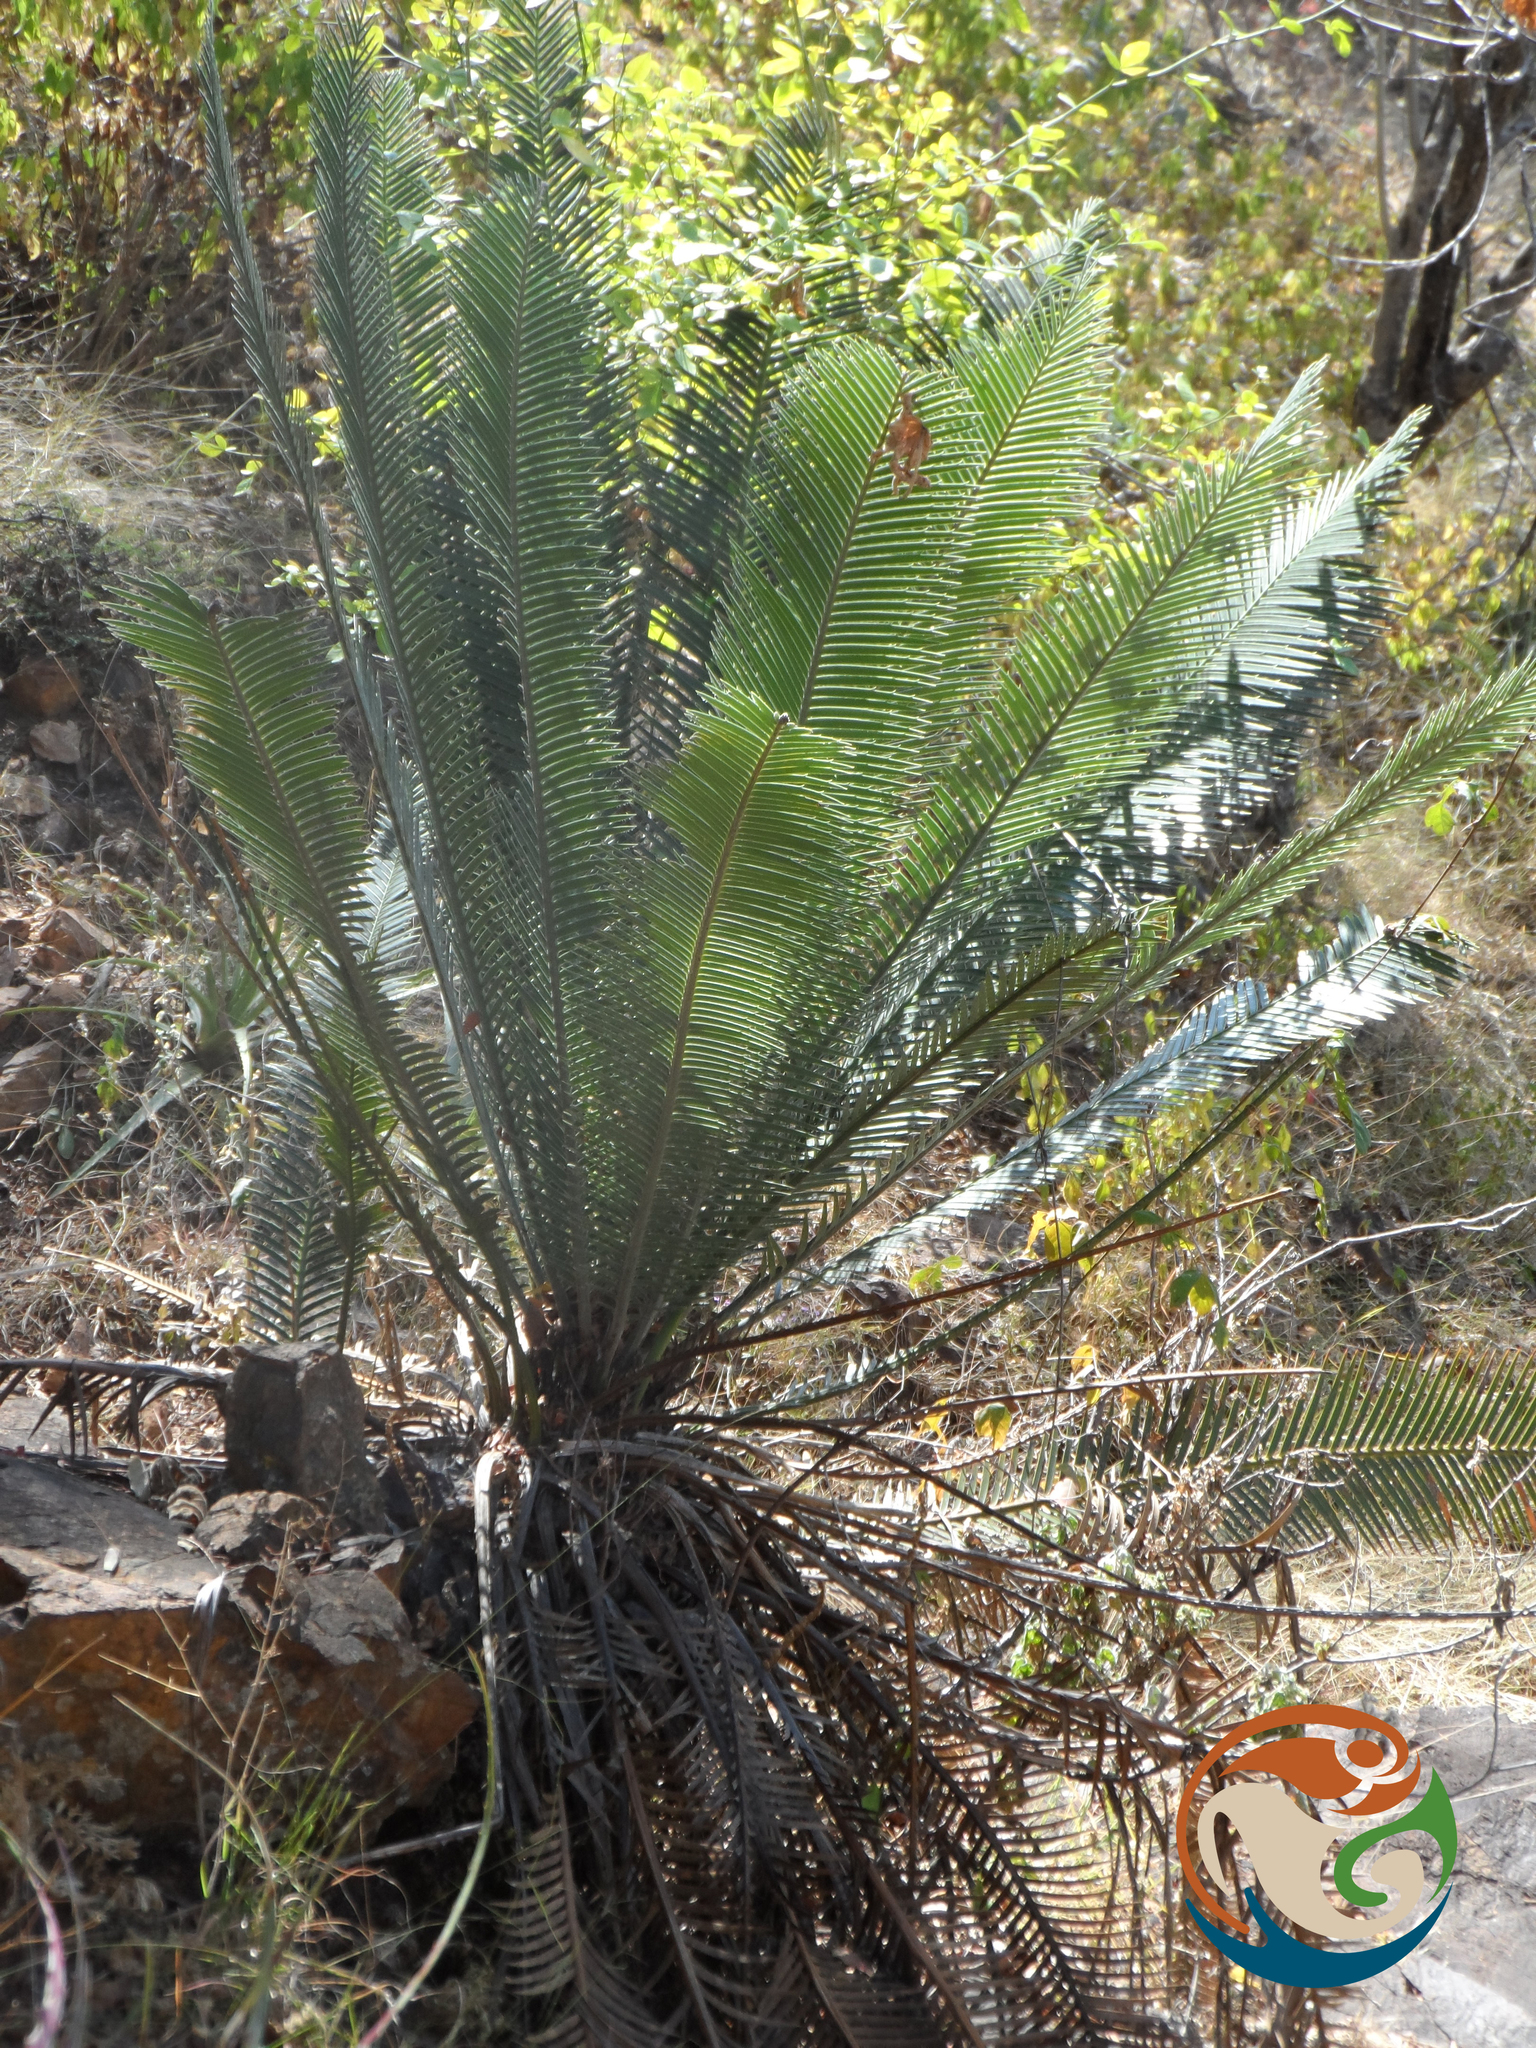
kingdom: Plantae
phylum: Tracheophyta
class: Cycadopsida
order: Cycadales
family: Zamiaceae
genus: Dioon
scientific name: Dioon planifolium
